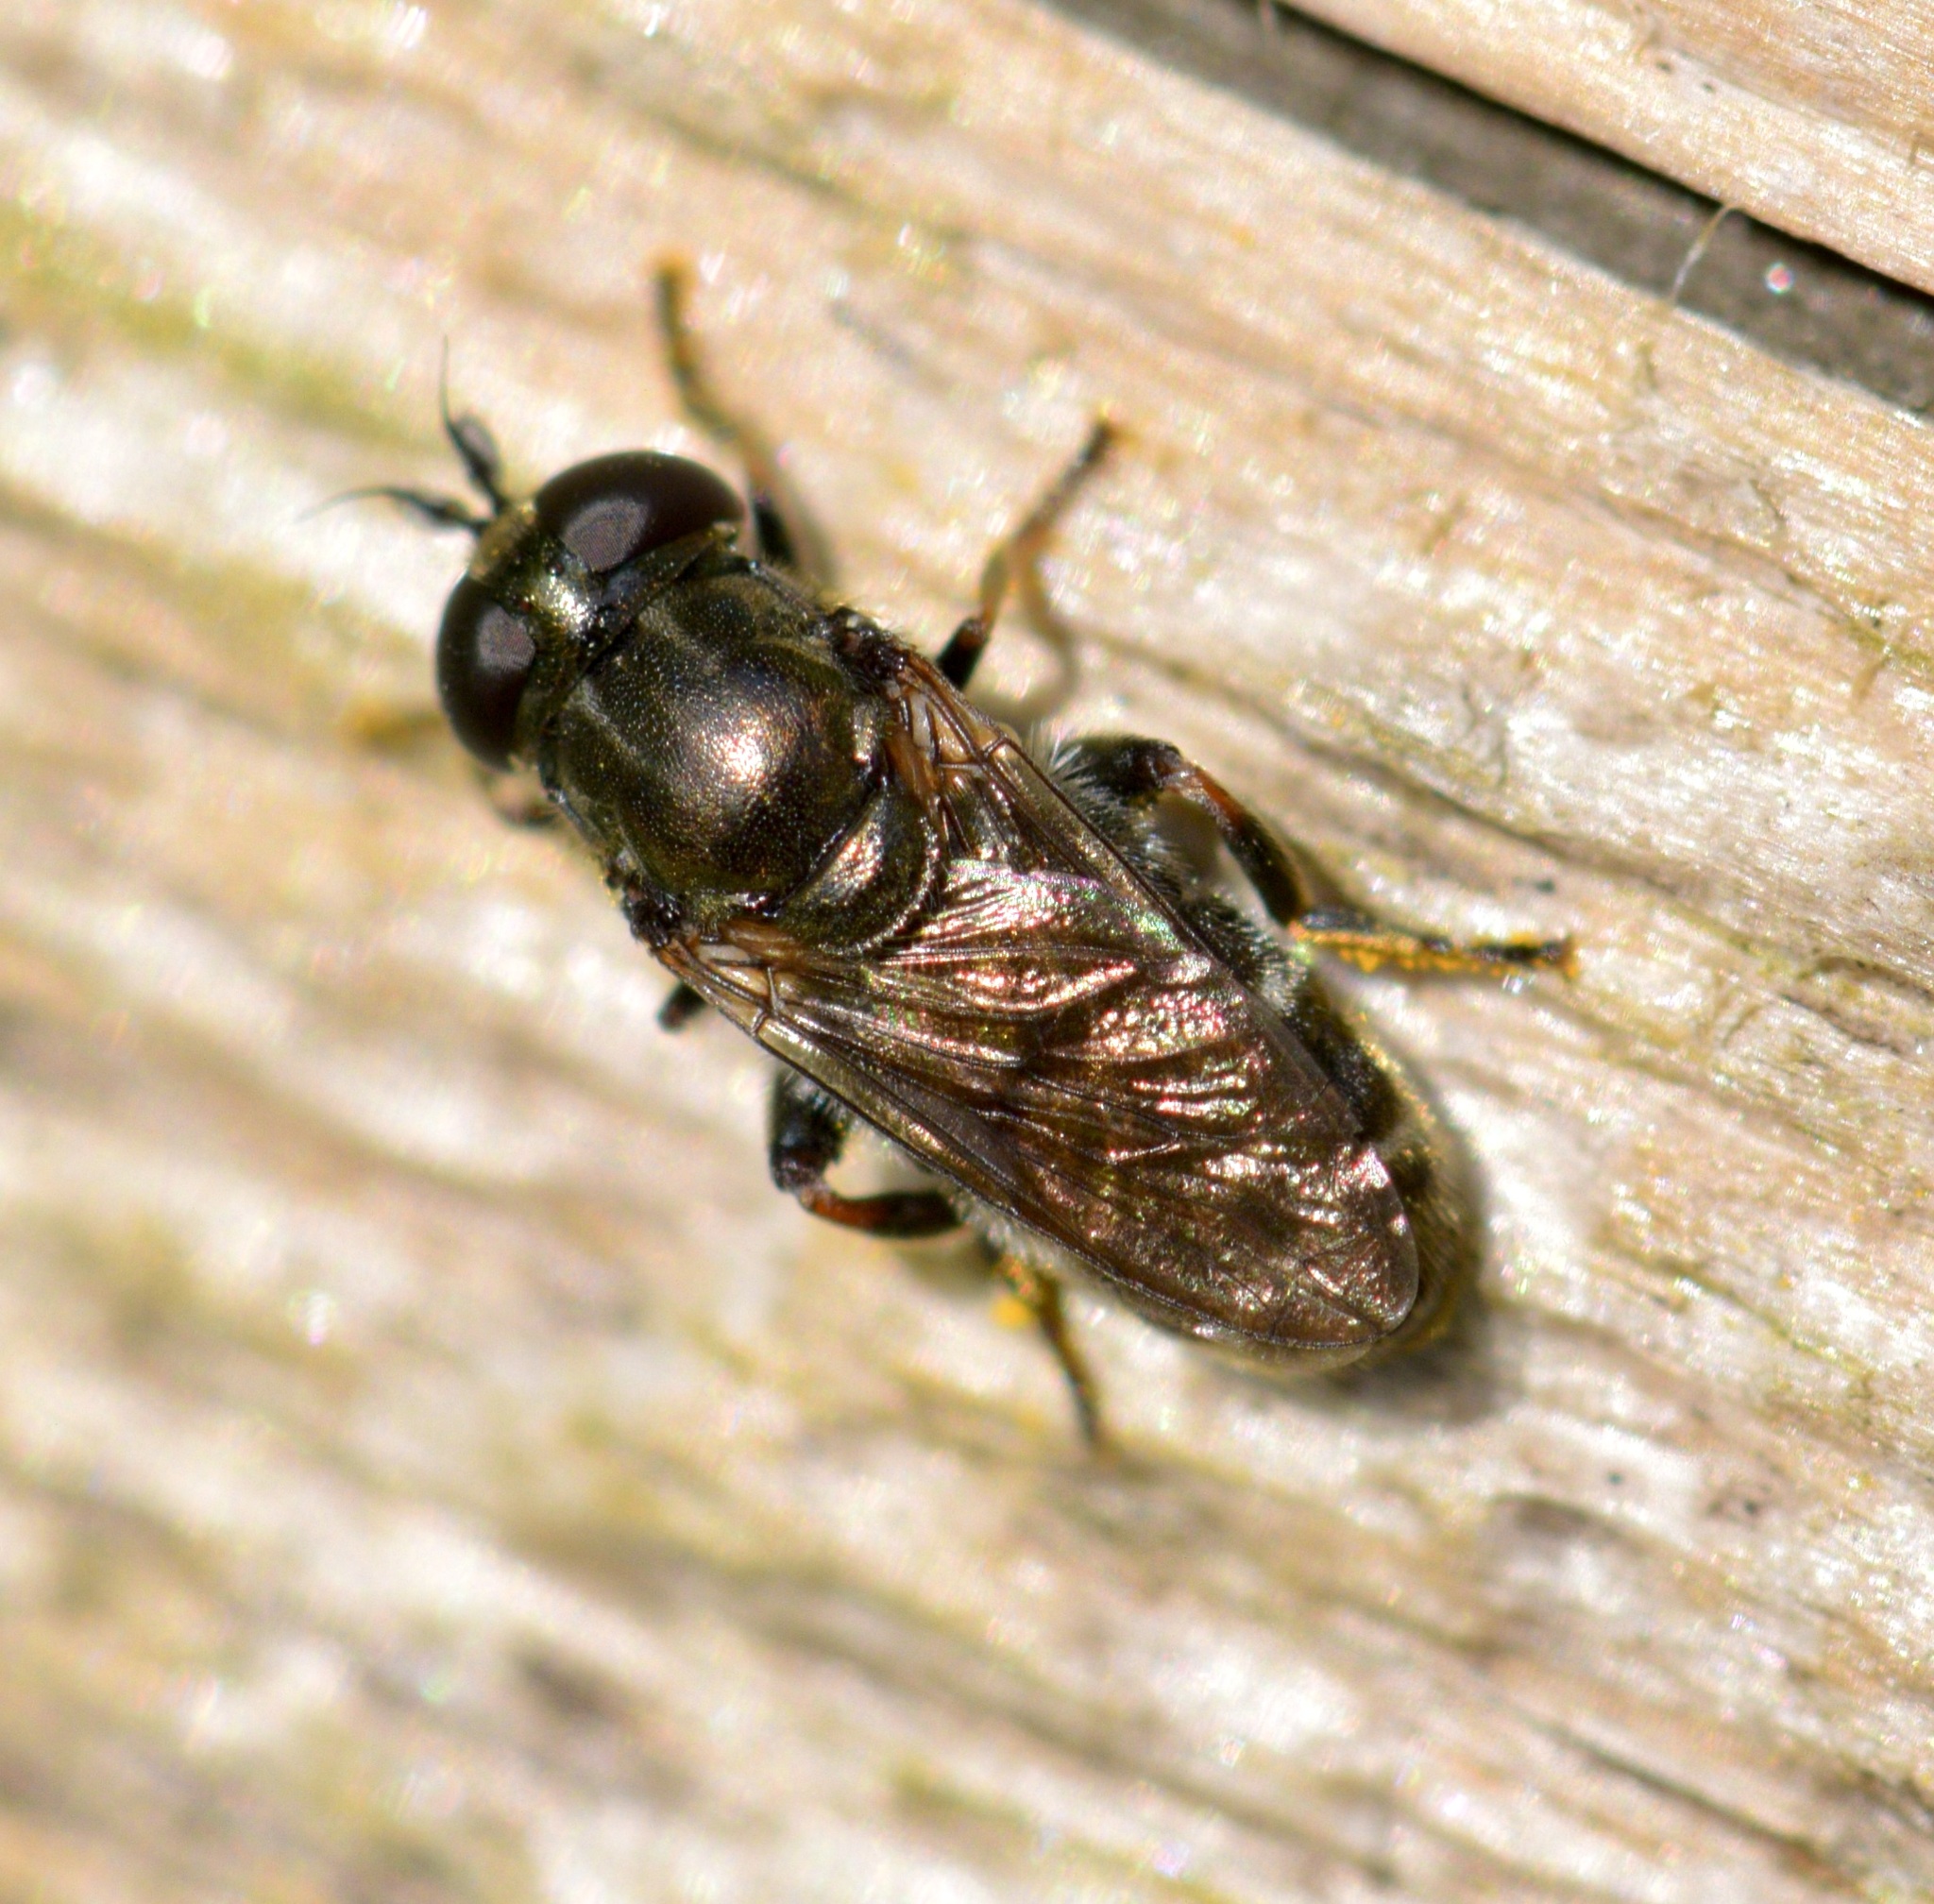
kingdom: Animalia
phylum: Arthropoda
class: Insecta
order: Diptera
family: Syrphidae
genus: Eumerus
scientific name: Eumerus
